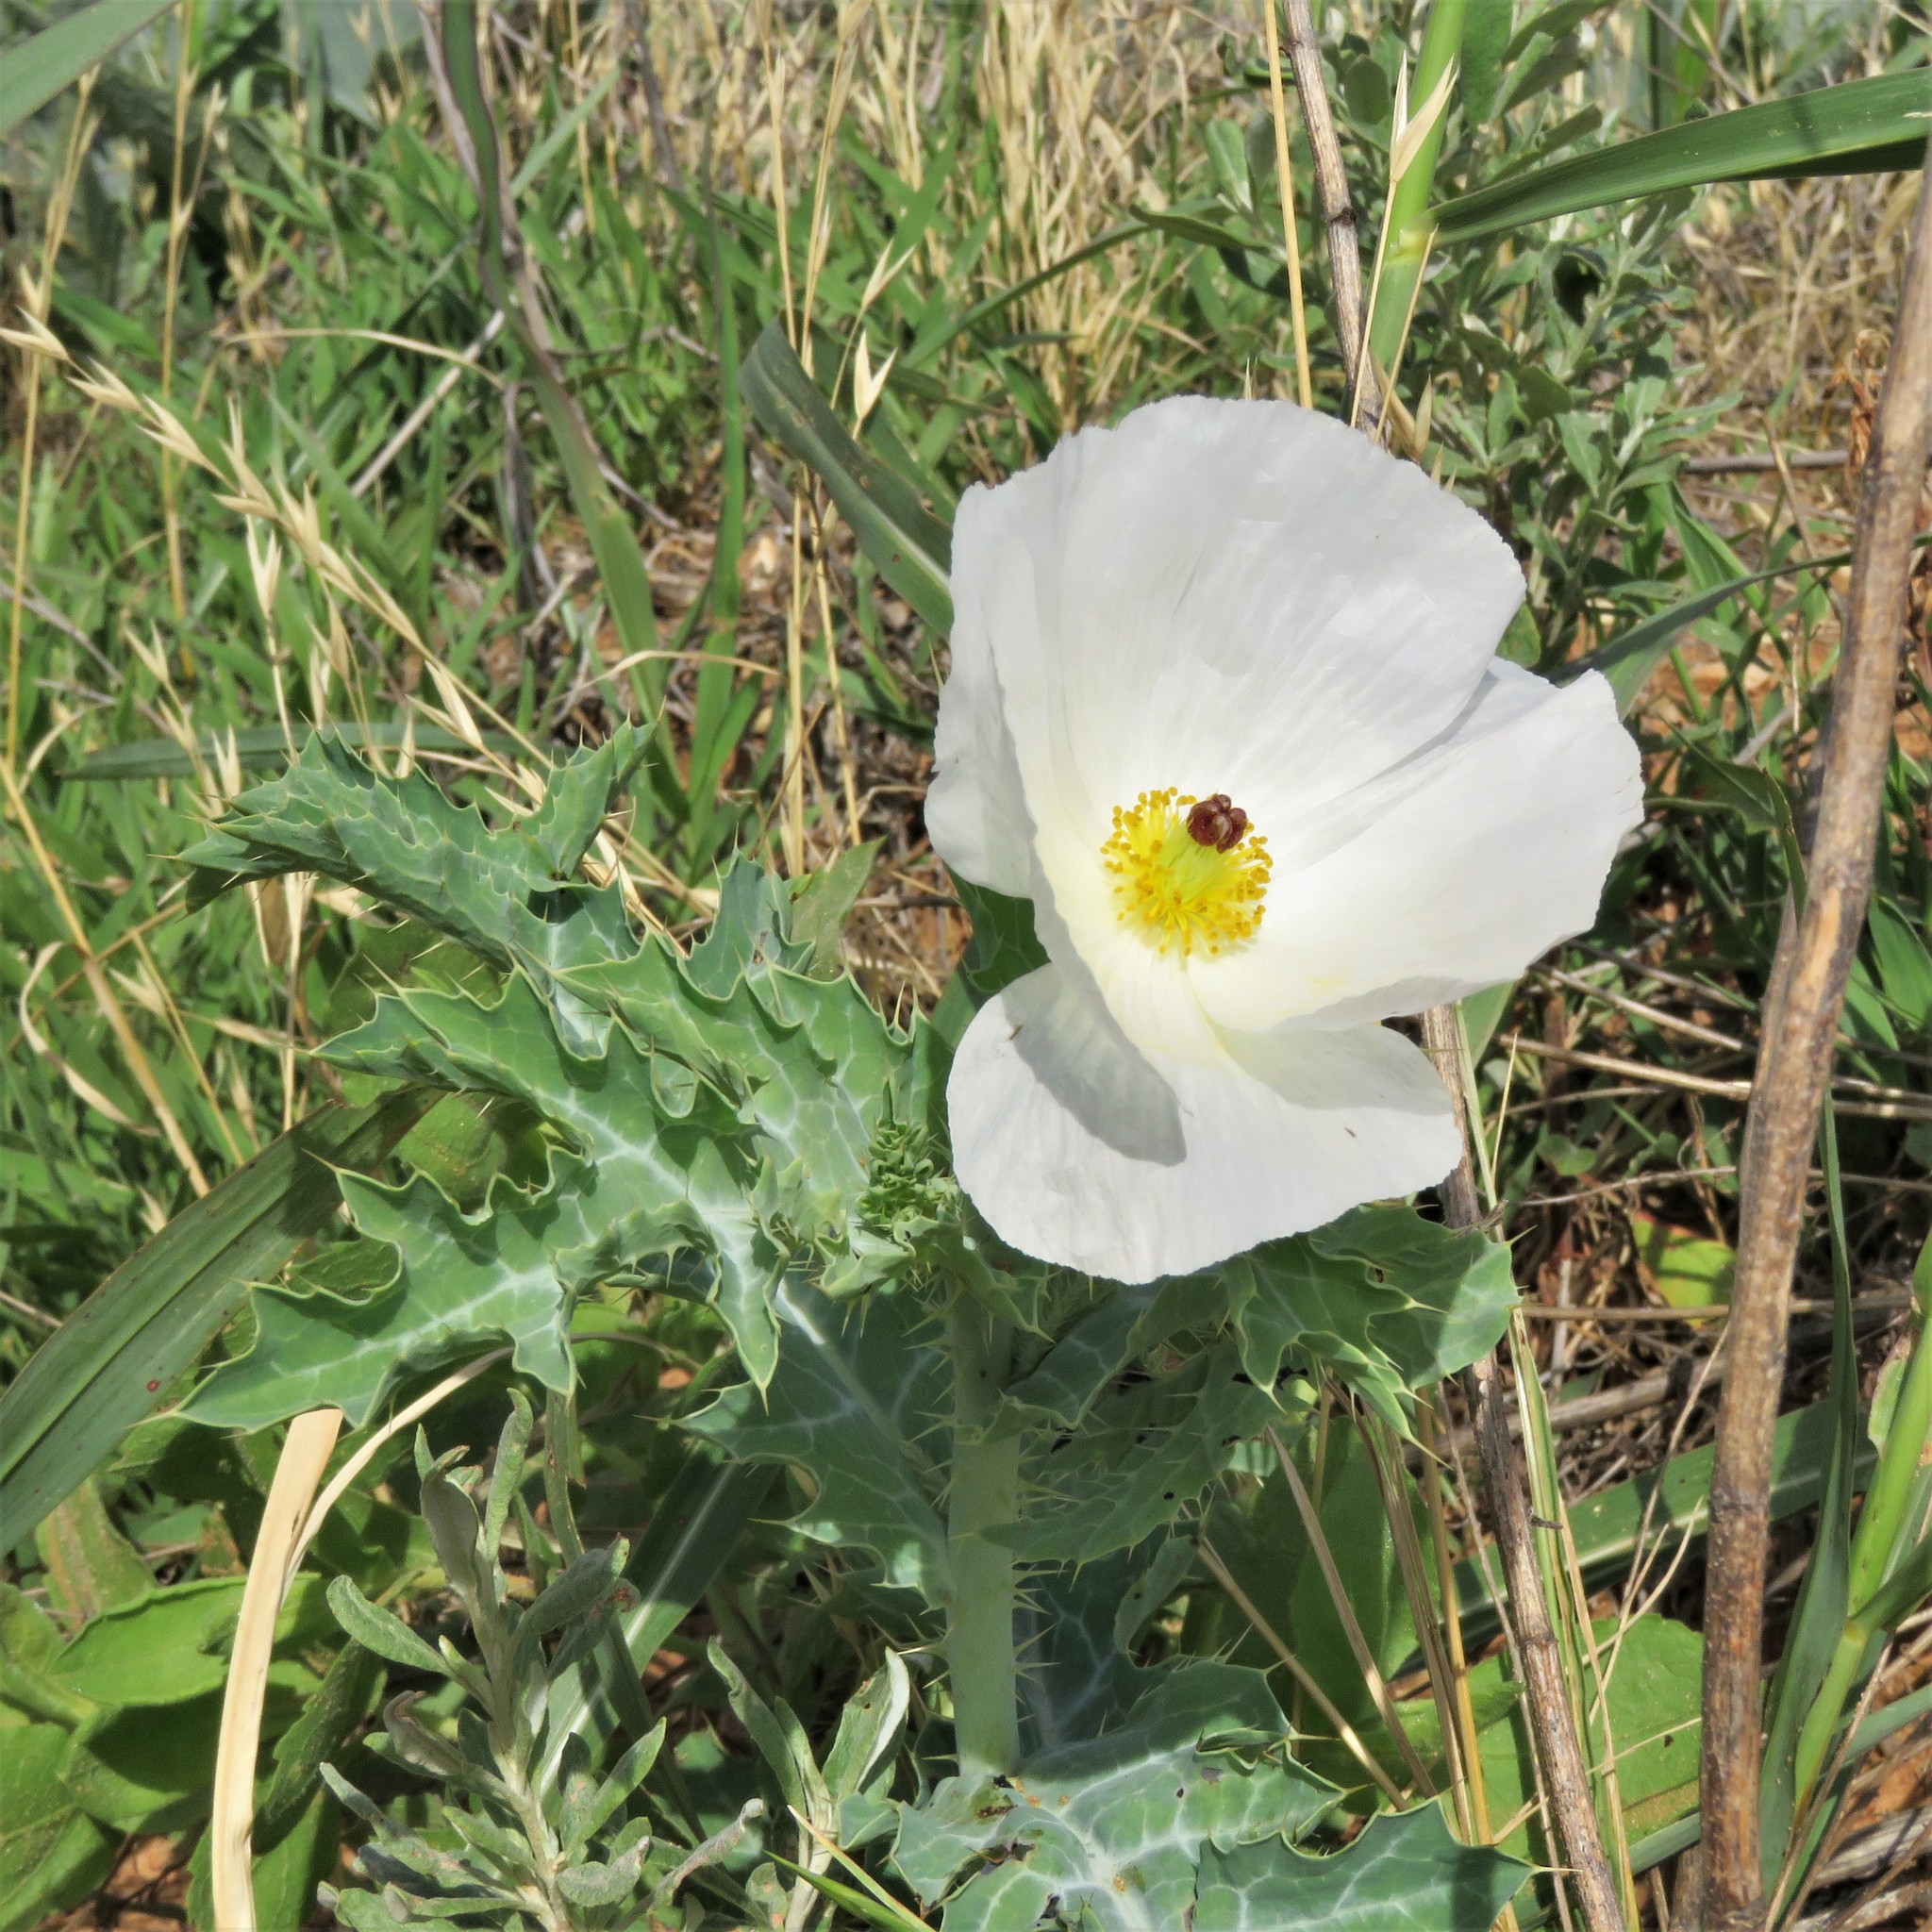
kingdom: Plantae
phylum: Tracheophyta
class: Magnoliopsida
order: Ranunculales
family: Papaveraceae
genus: Argemone
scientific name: Argemone polyanthemos
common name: Plains prickly-poppy
